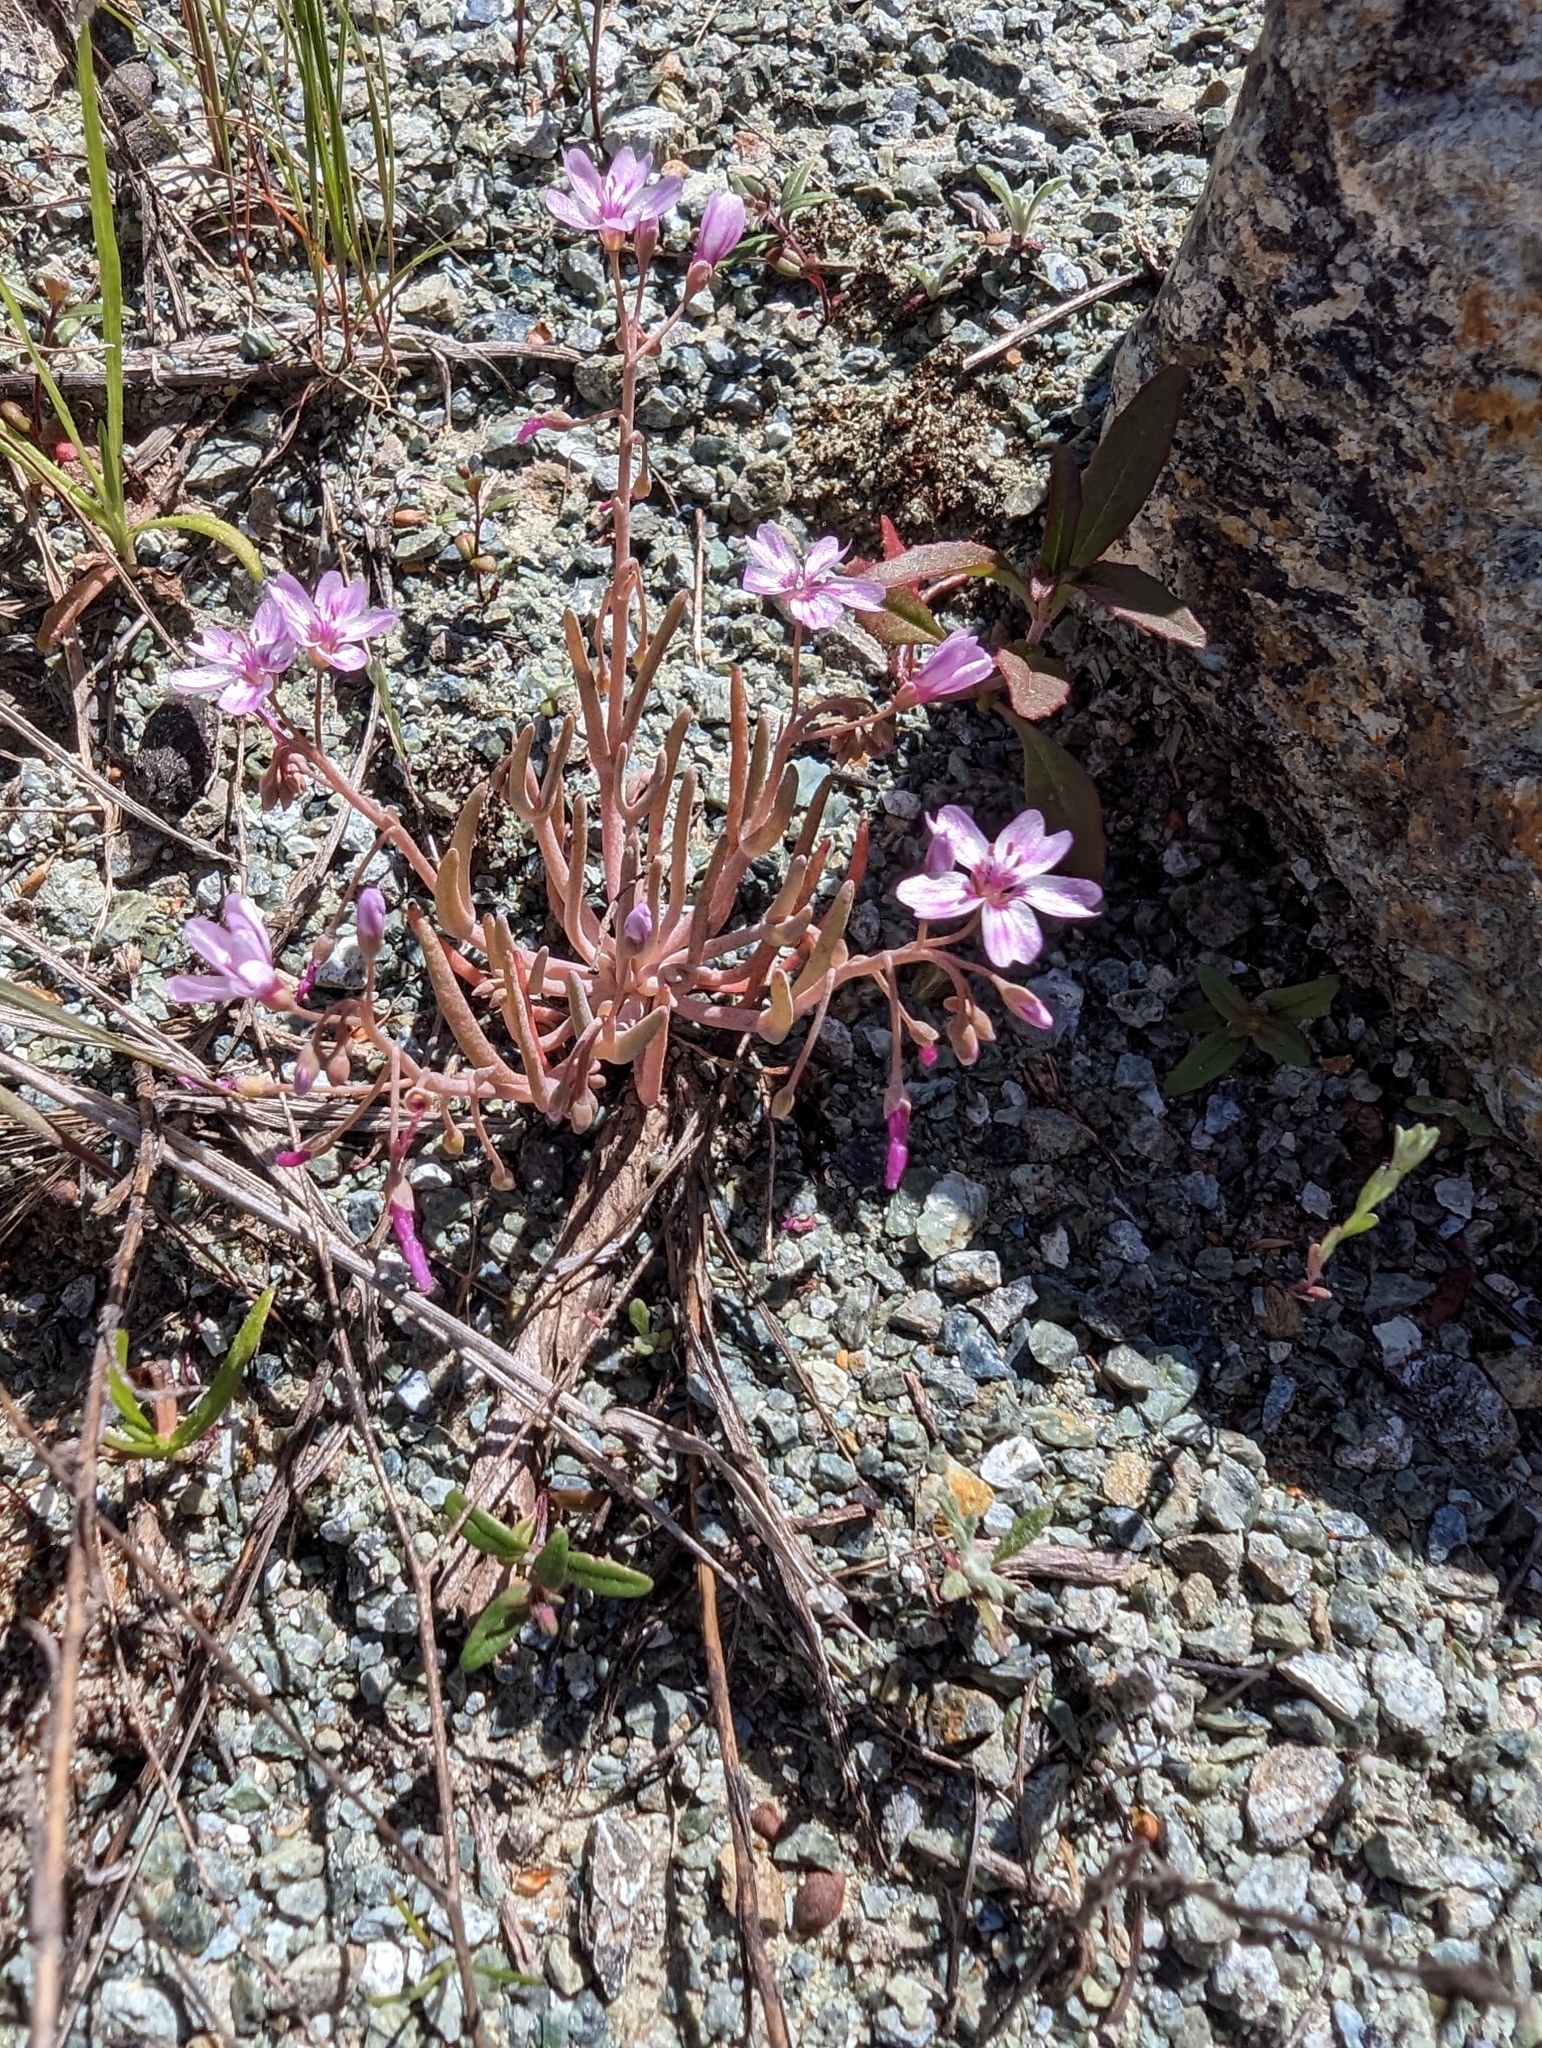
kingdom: Plantae
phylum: Tracheophyta
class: Magnoliopsida
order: Caryophyllales
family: Montiaceae
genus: Claytonia
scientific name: Claytonia gypsophiloides
